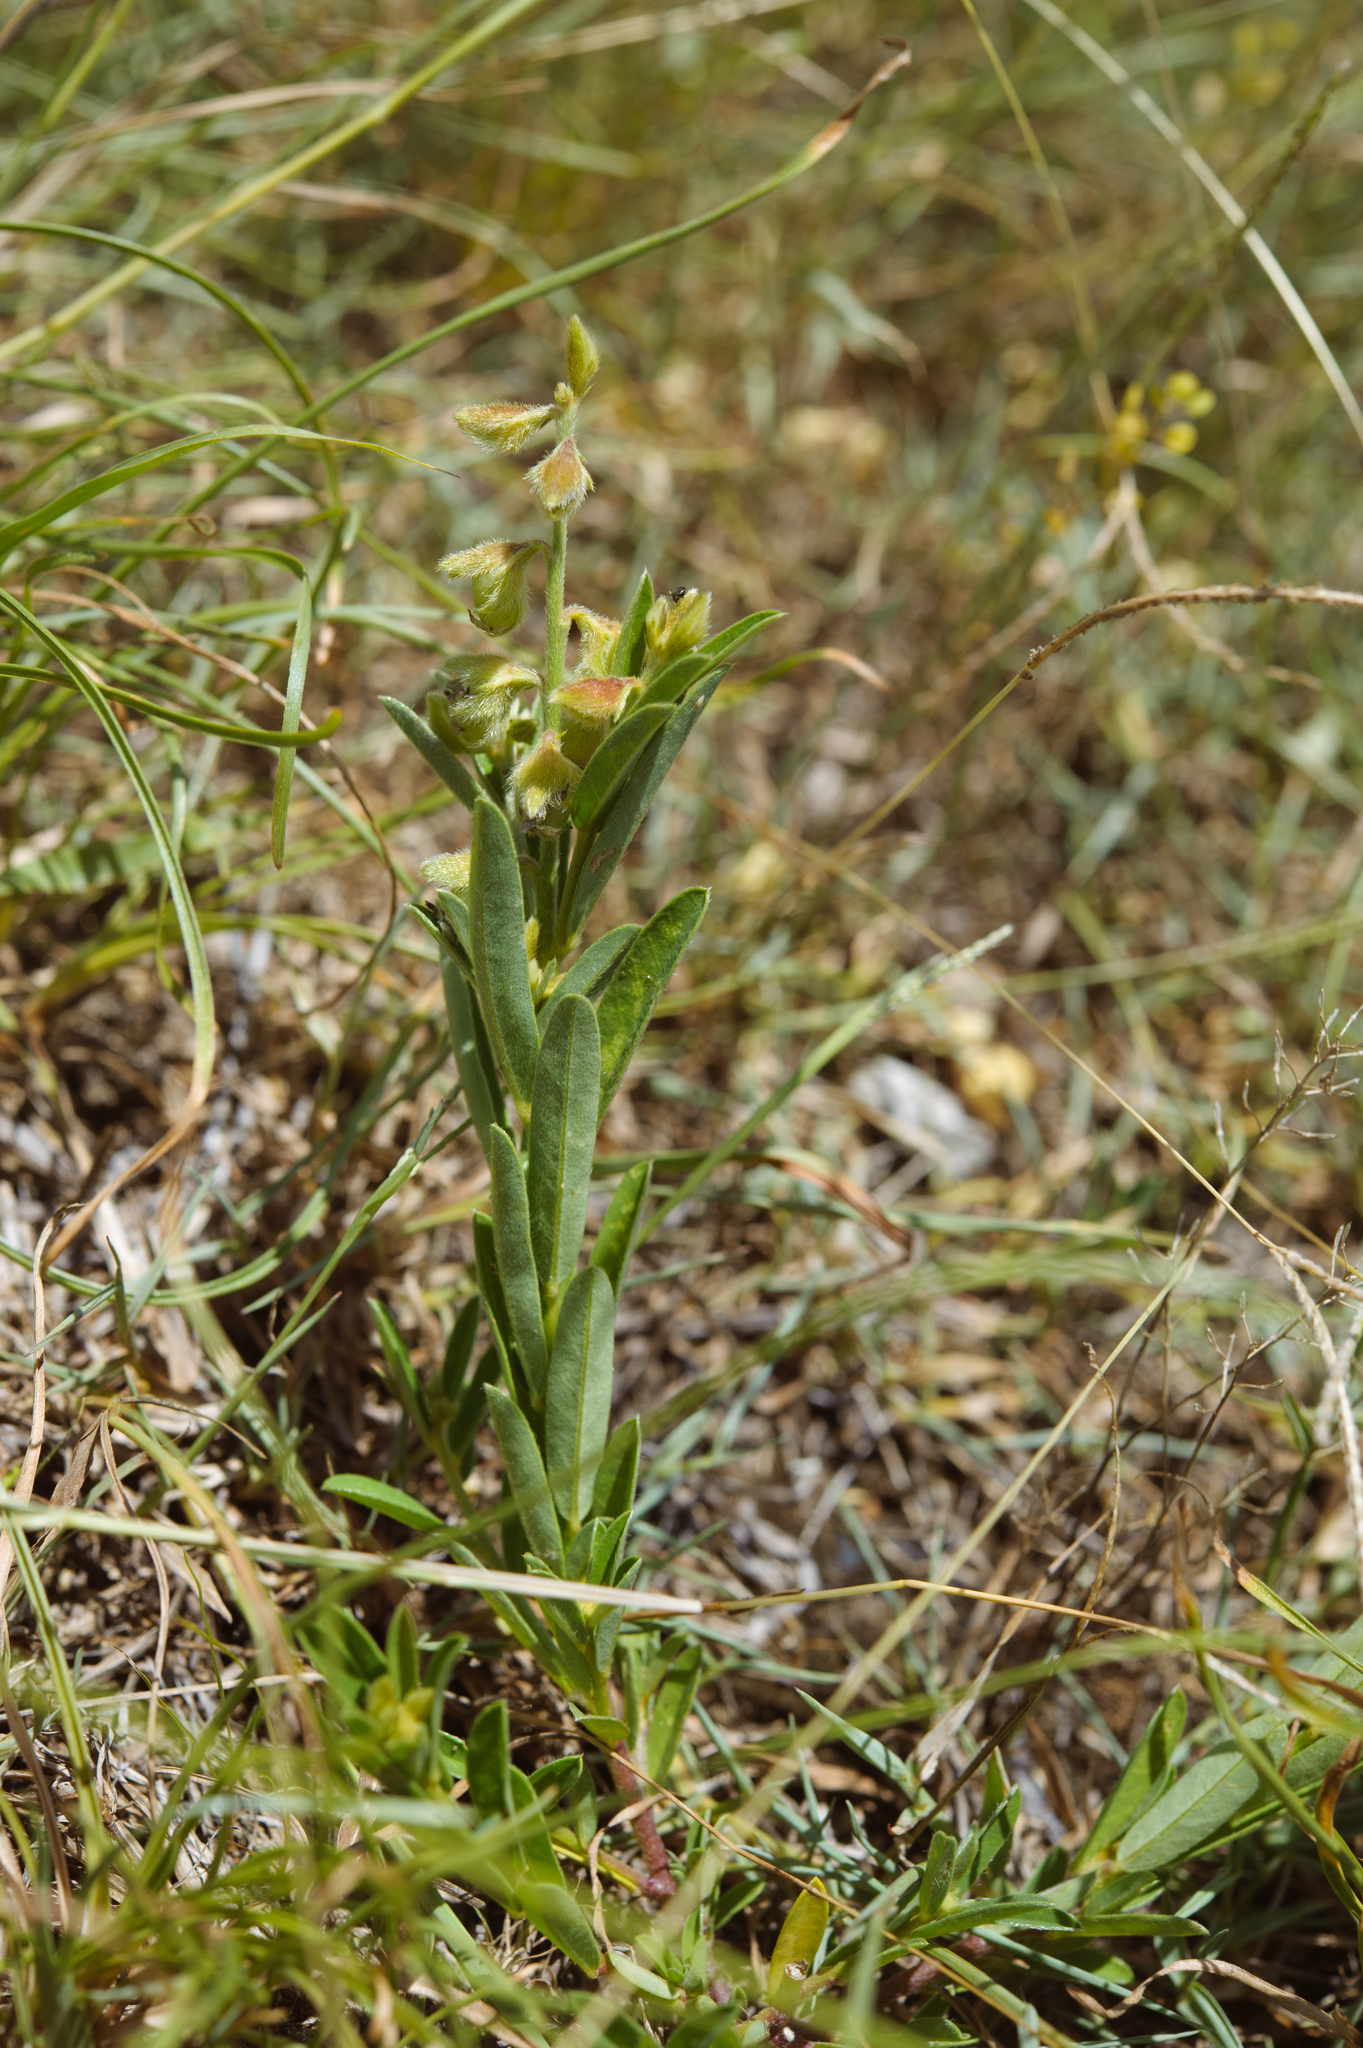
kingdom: Plantae
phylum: Tracheophyta
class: Magnoliopsida
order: Fabales
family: Fabaceae
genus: Crotalaria
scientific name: Crotalaria linifolia
